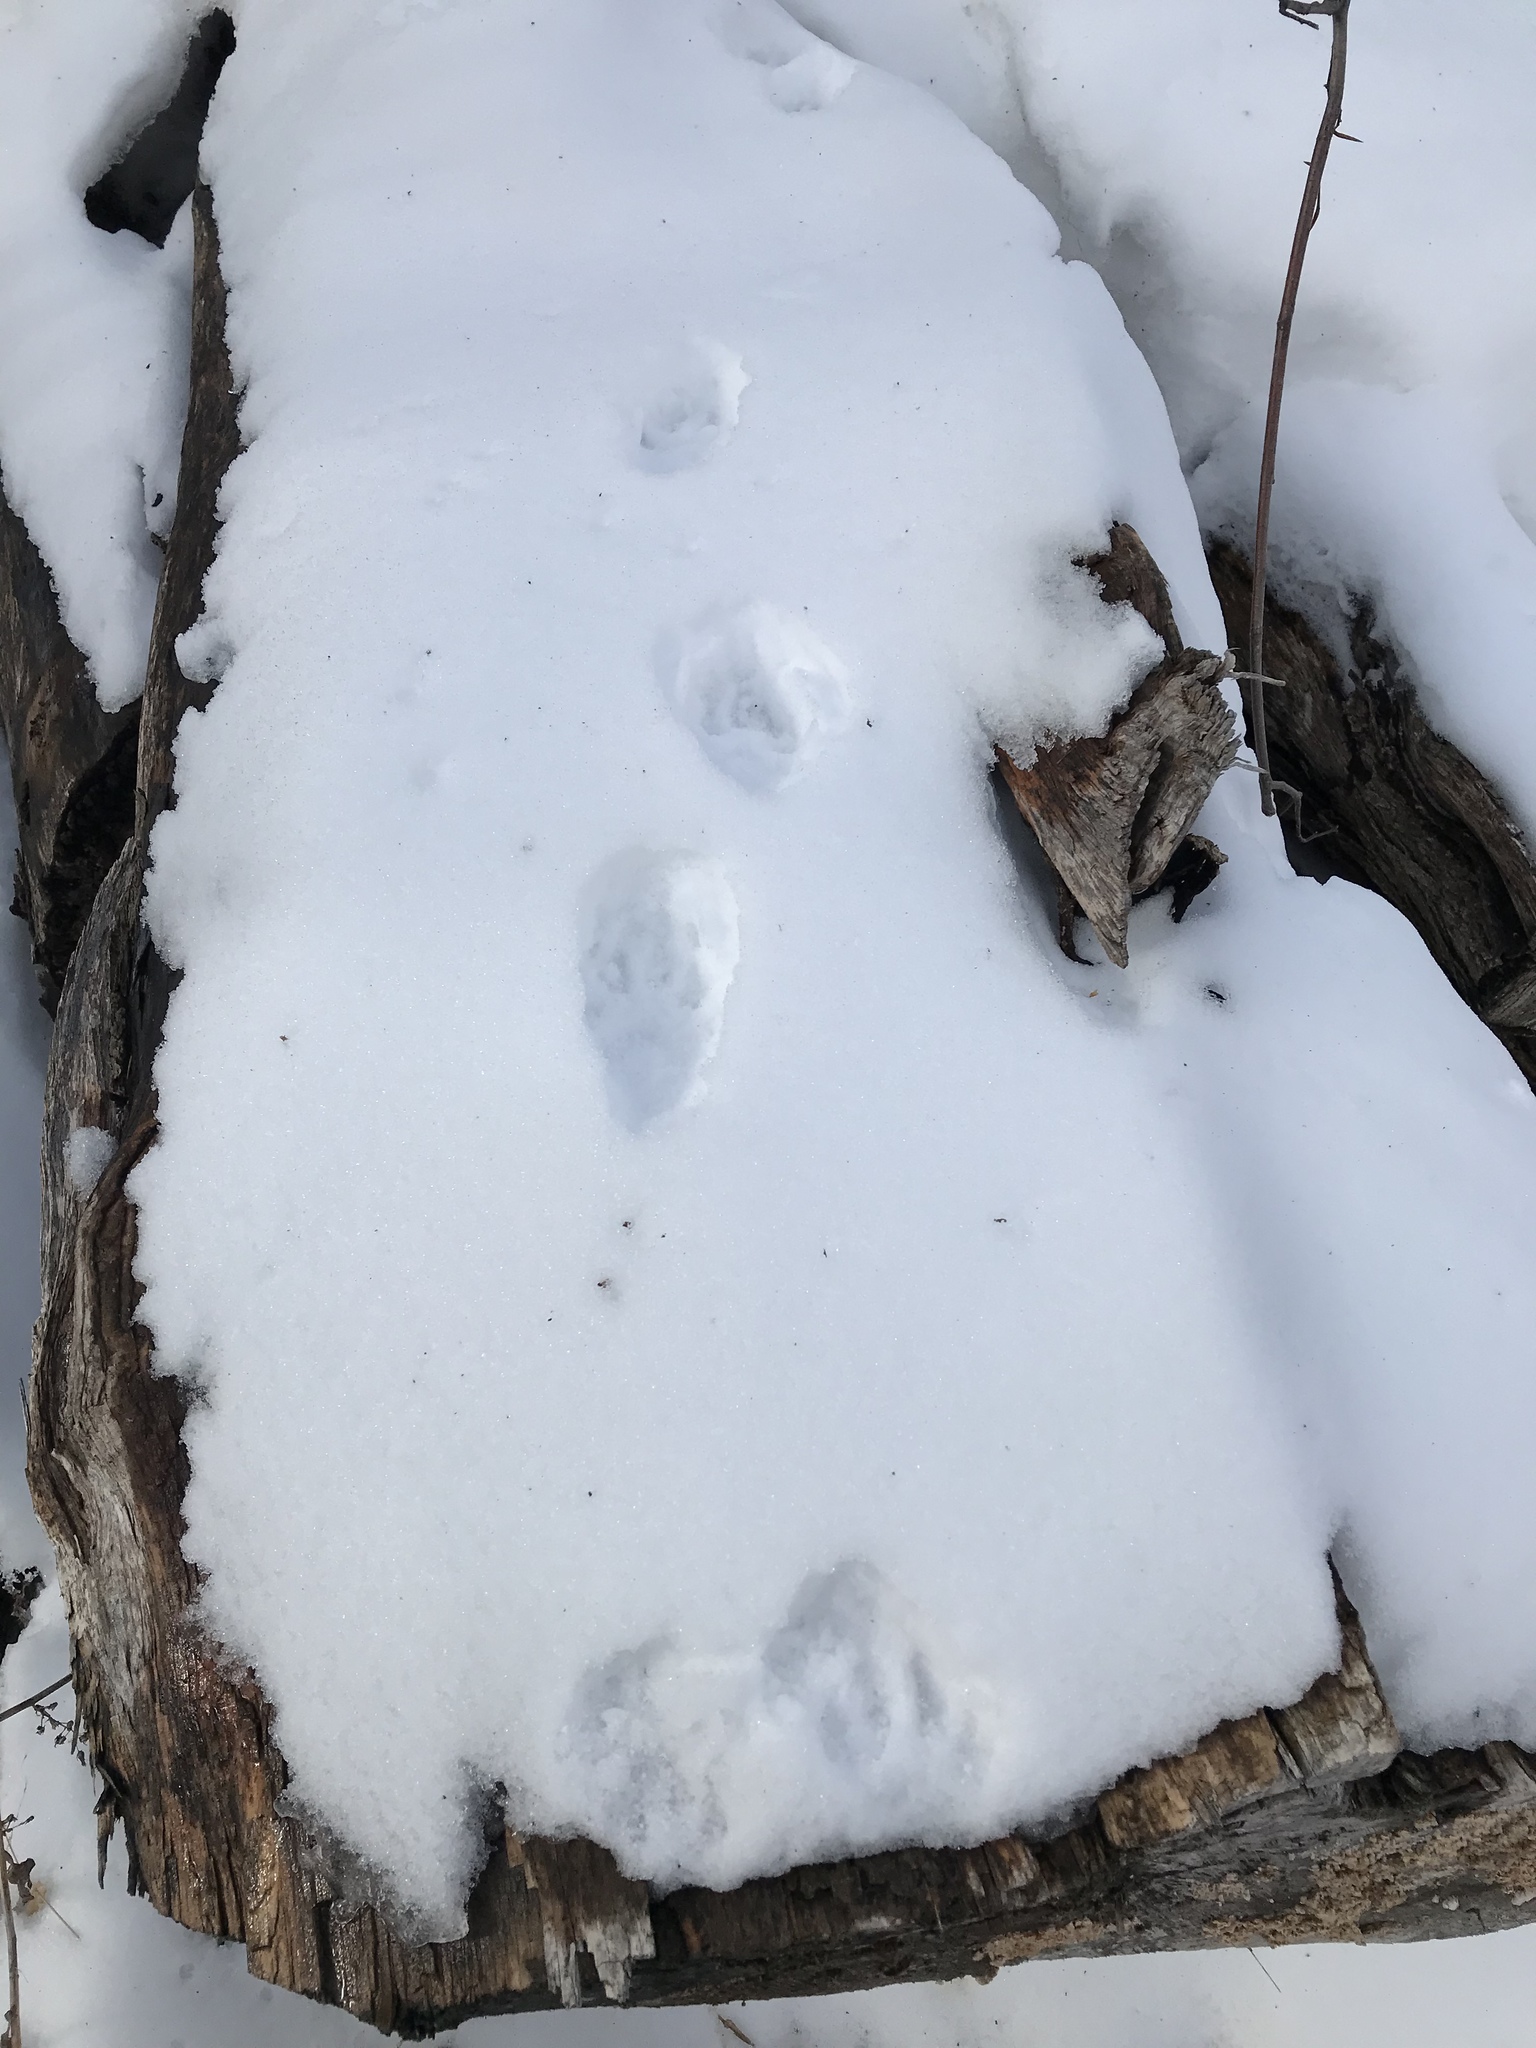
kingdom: Animalia
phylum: Chordata
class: Mammalia
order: Carnivora
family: Mustelidae
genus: Pekania
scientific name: Pekania pennanti
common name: Fisher
